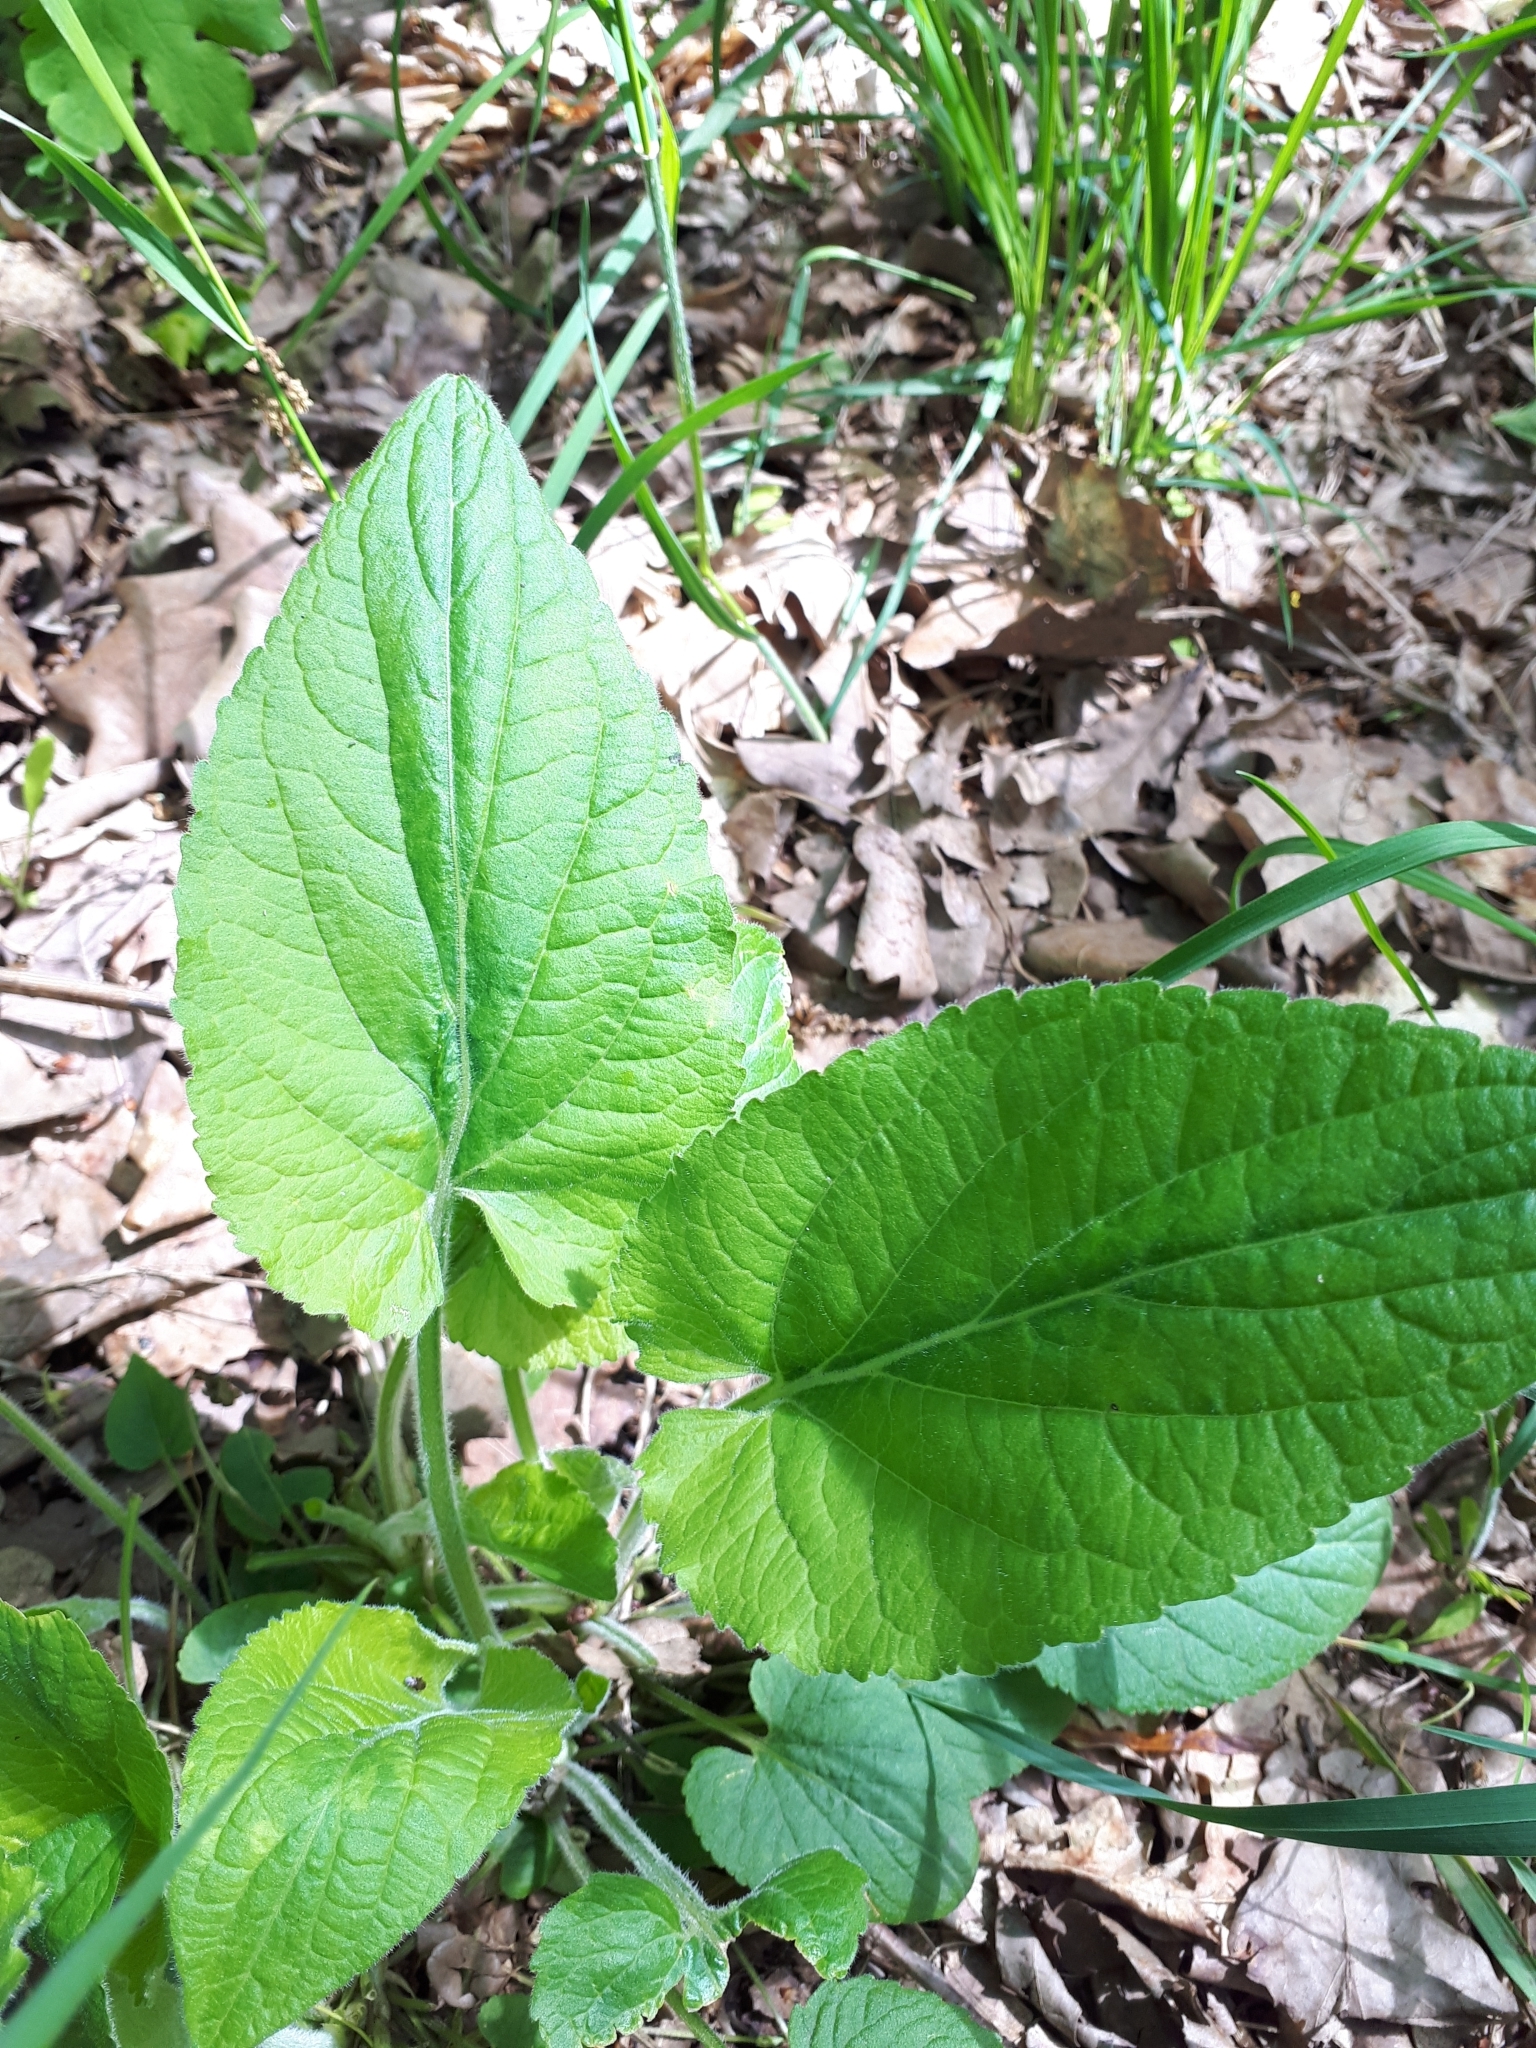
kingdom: Plantae
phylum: Tracheophyta
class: Magnoliopsida
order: Malpighiales
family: Violaceae
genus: Viola
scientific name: Viola hirta
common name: Hairy violet
